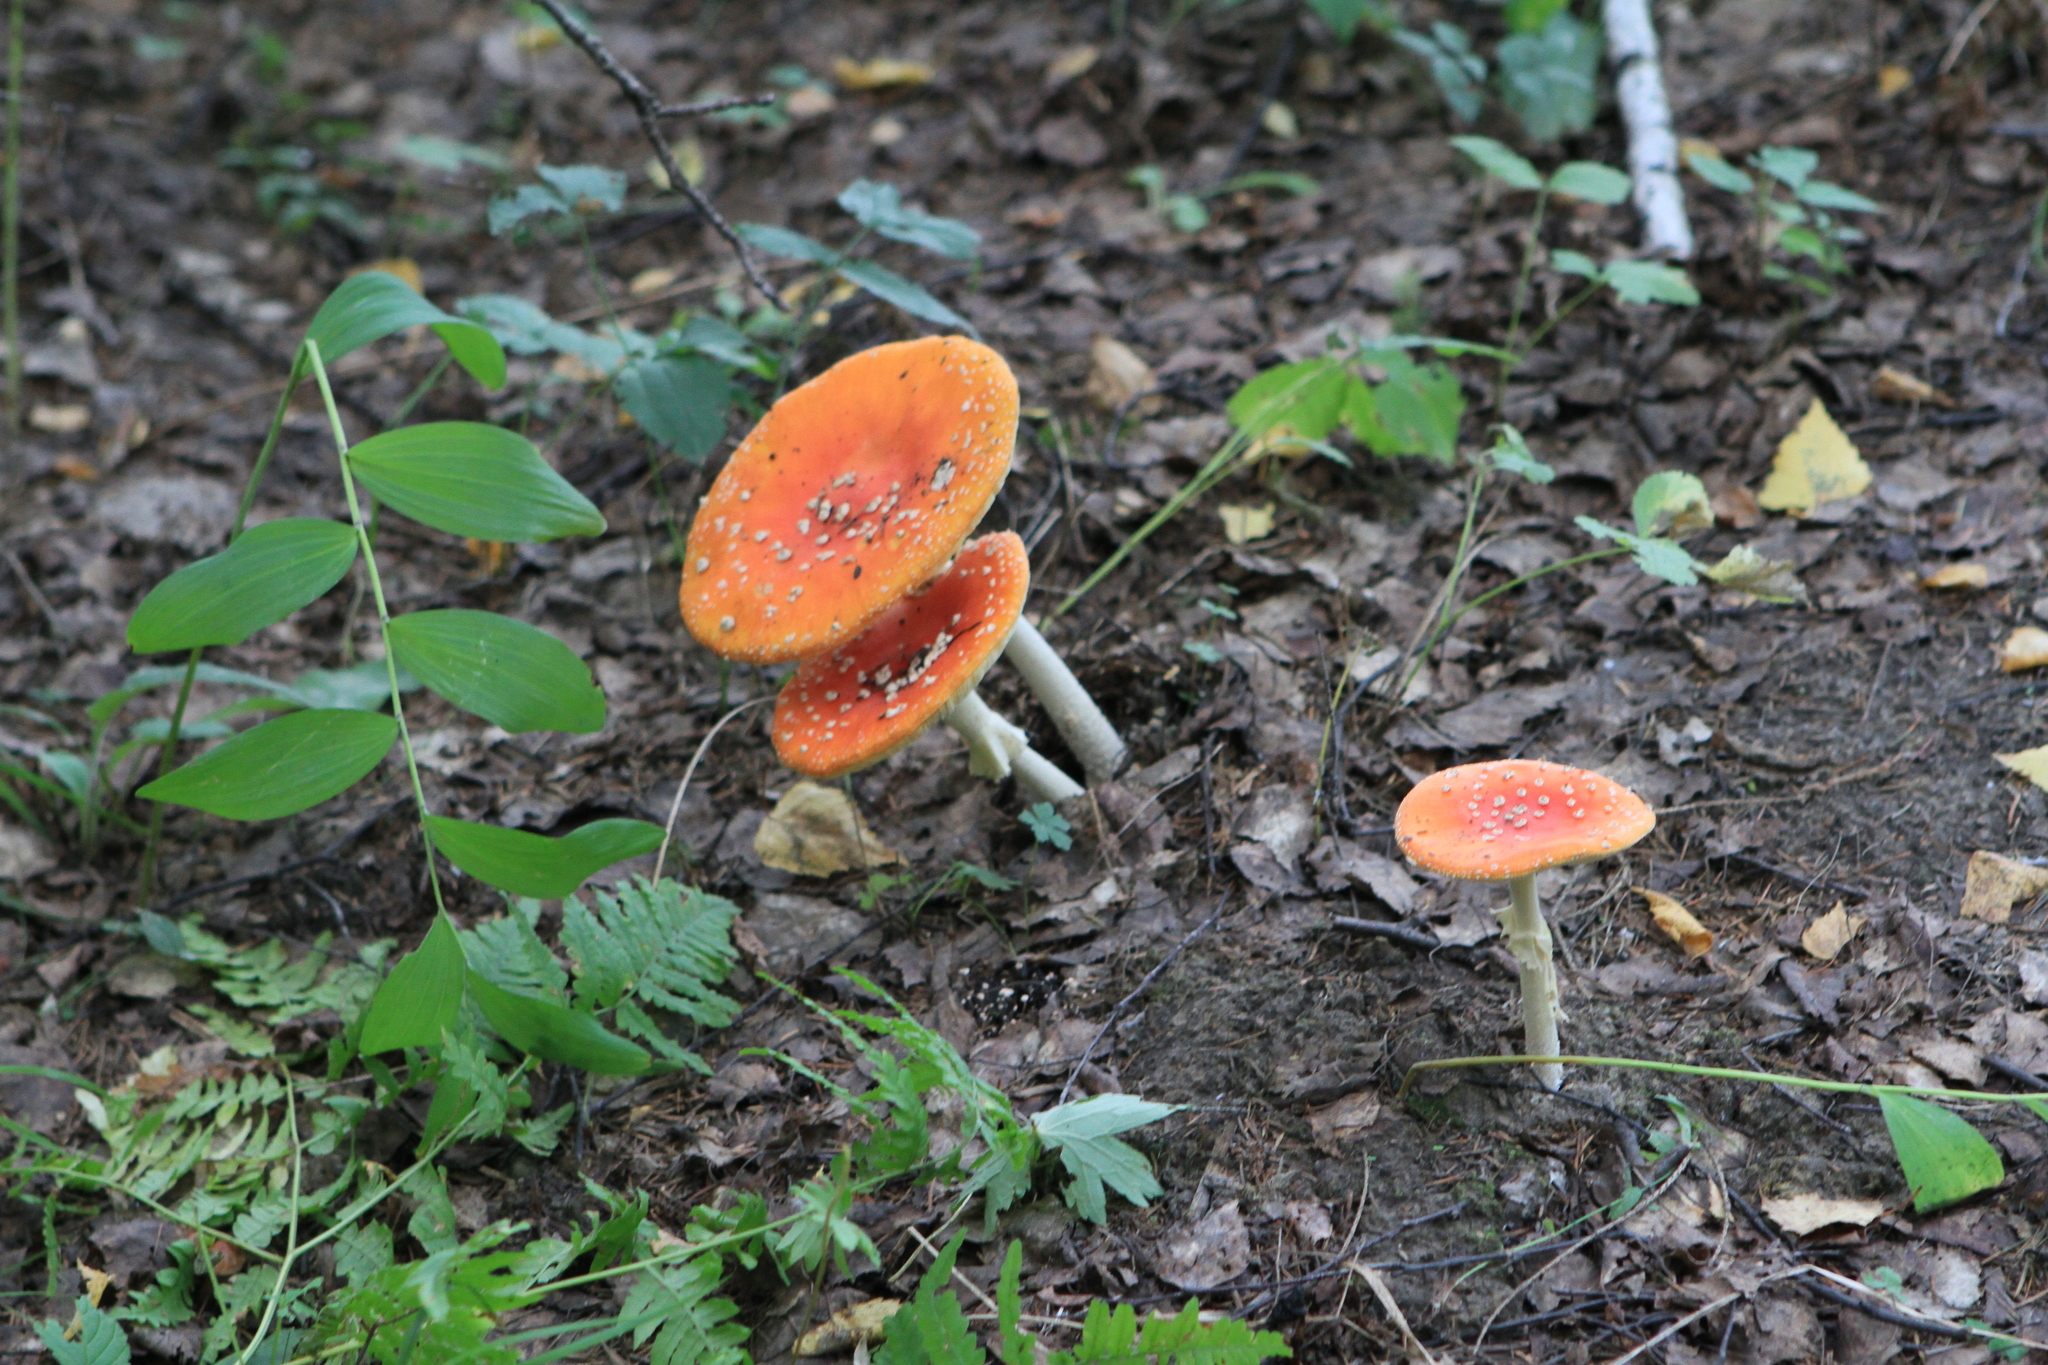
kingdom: Fungi
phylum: Basidiomycota
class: Agaricomycetes
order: Agaricales
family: Amanitaceae
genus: Amanita
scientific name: Amanita muscaria
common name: Fly agaric
